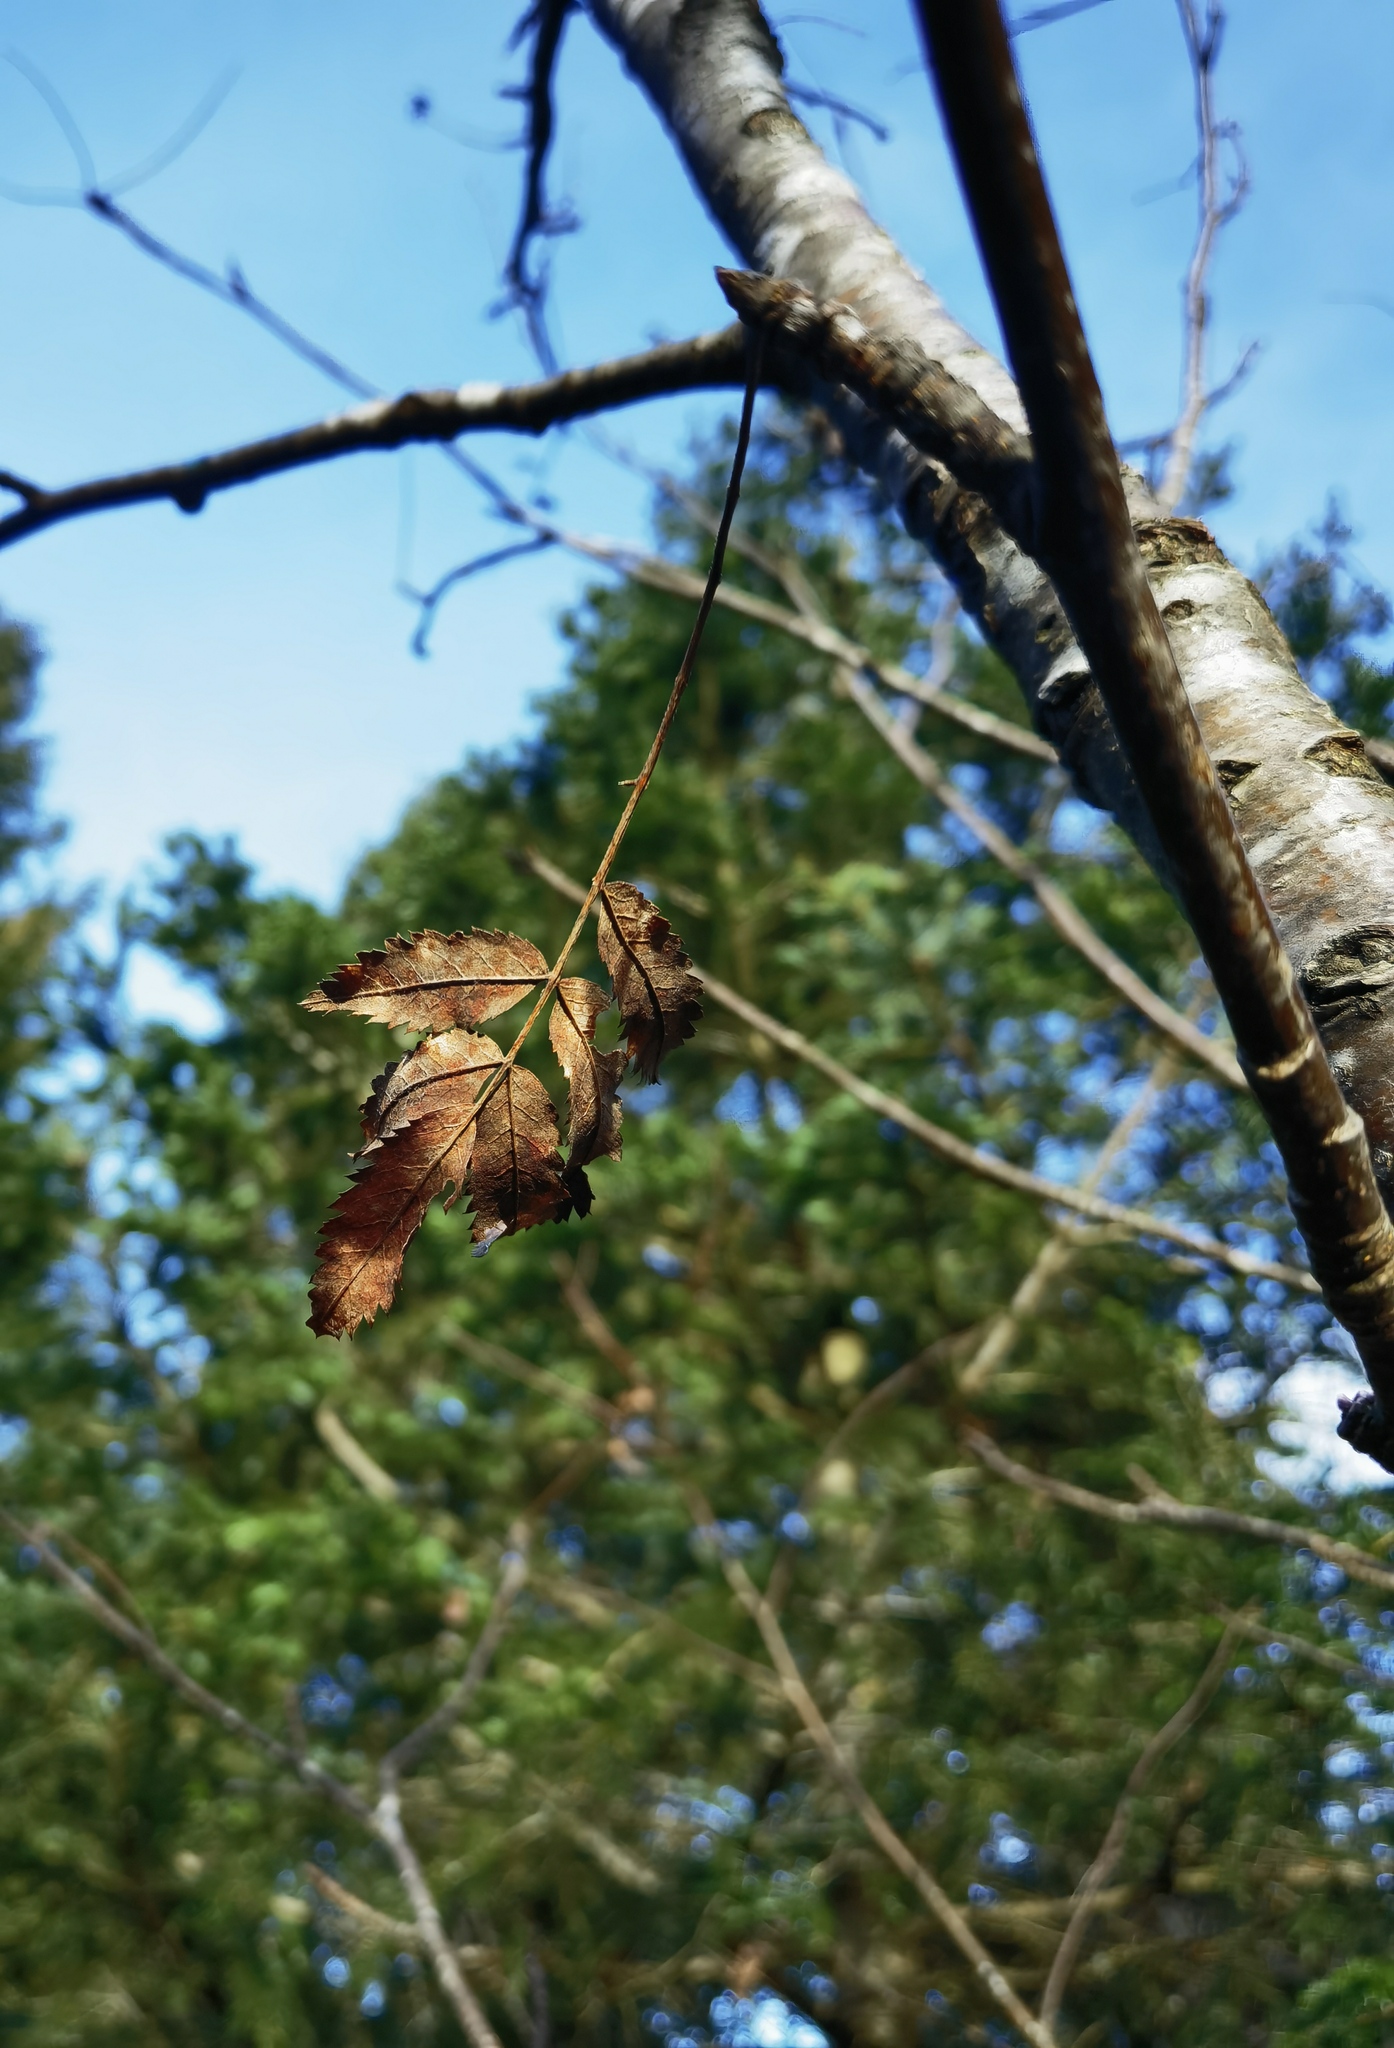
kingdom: Plantae
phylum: Tracheophyta
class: Magnoliopsida
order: Rosales
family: Rosaceae
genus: Sorbus
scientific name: Sorbus aucuparia
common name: Rowan
